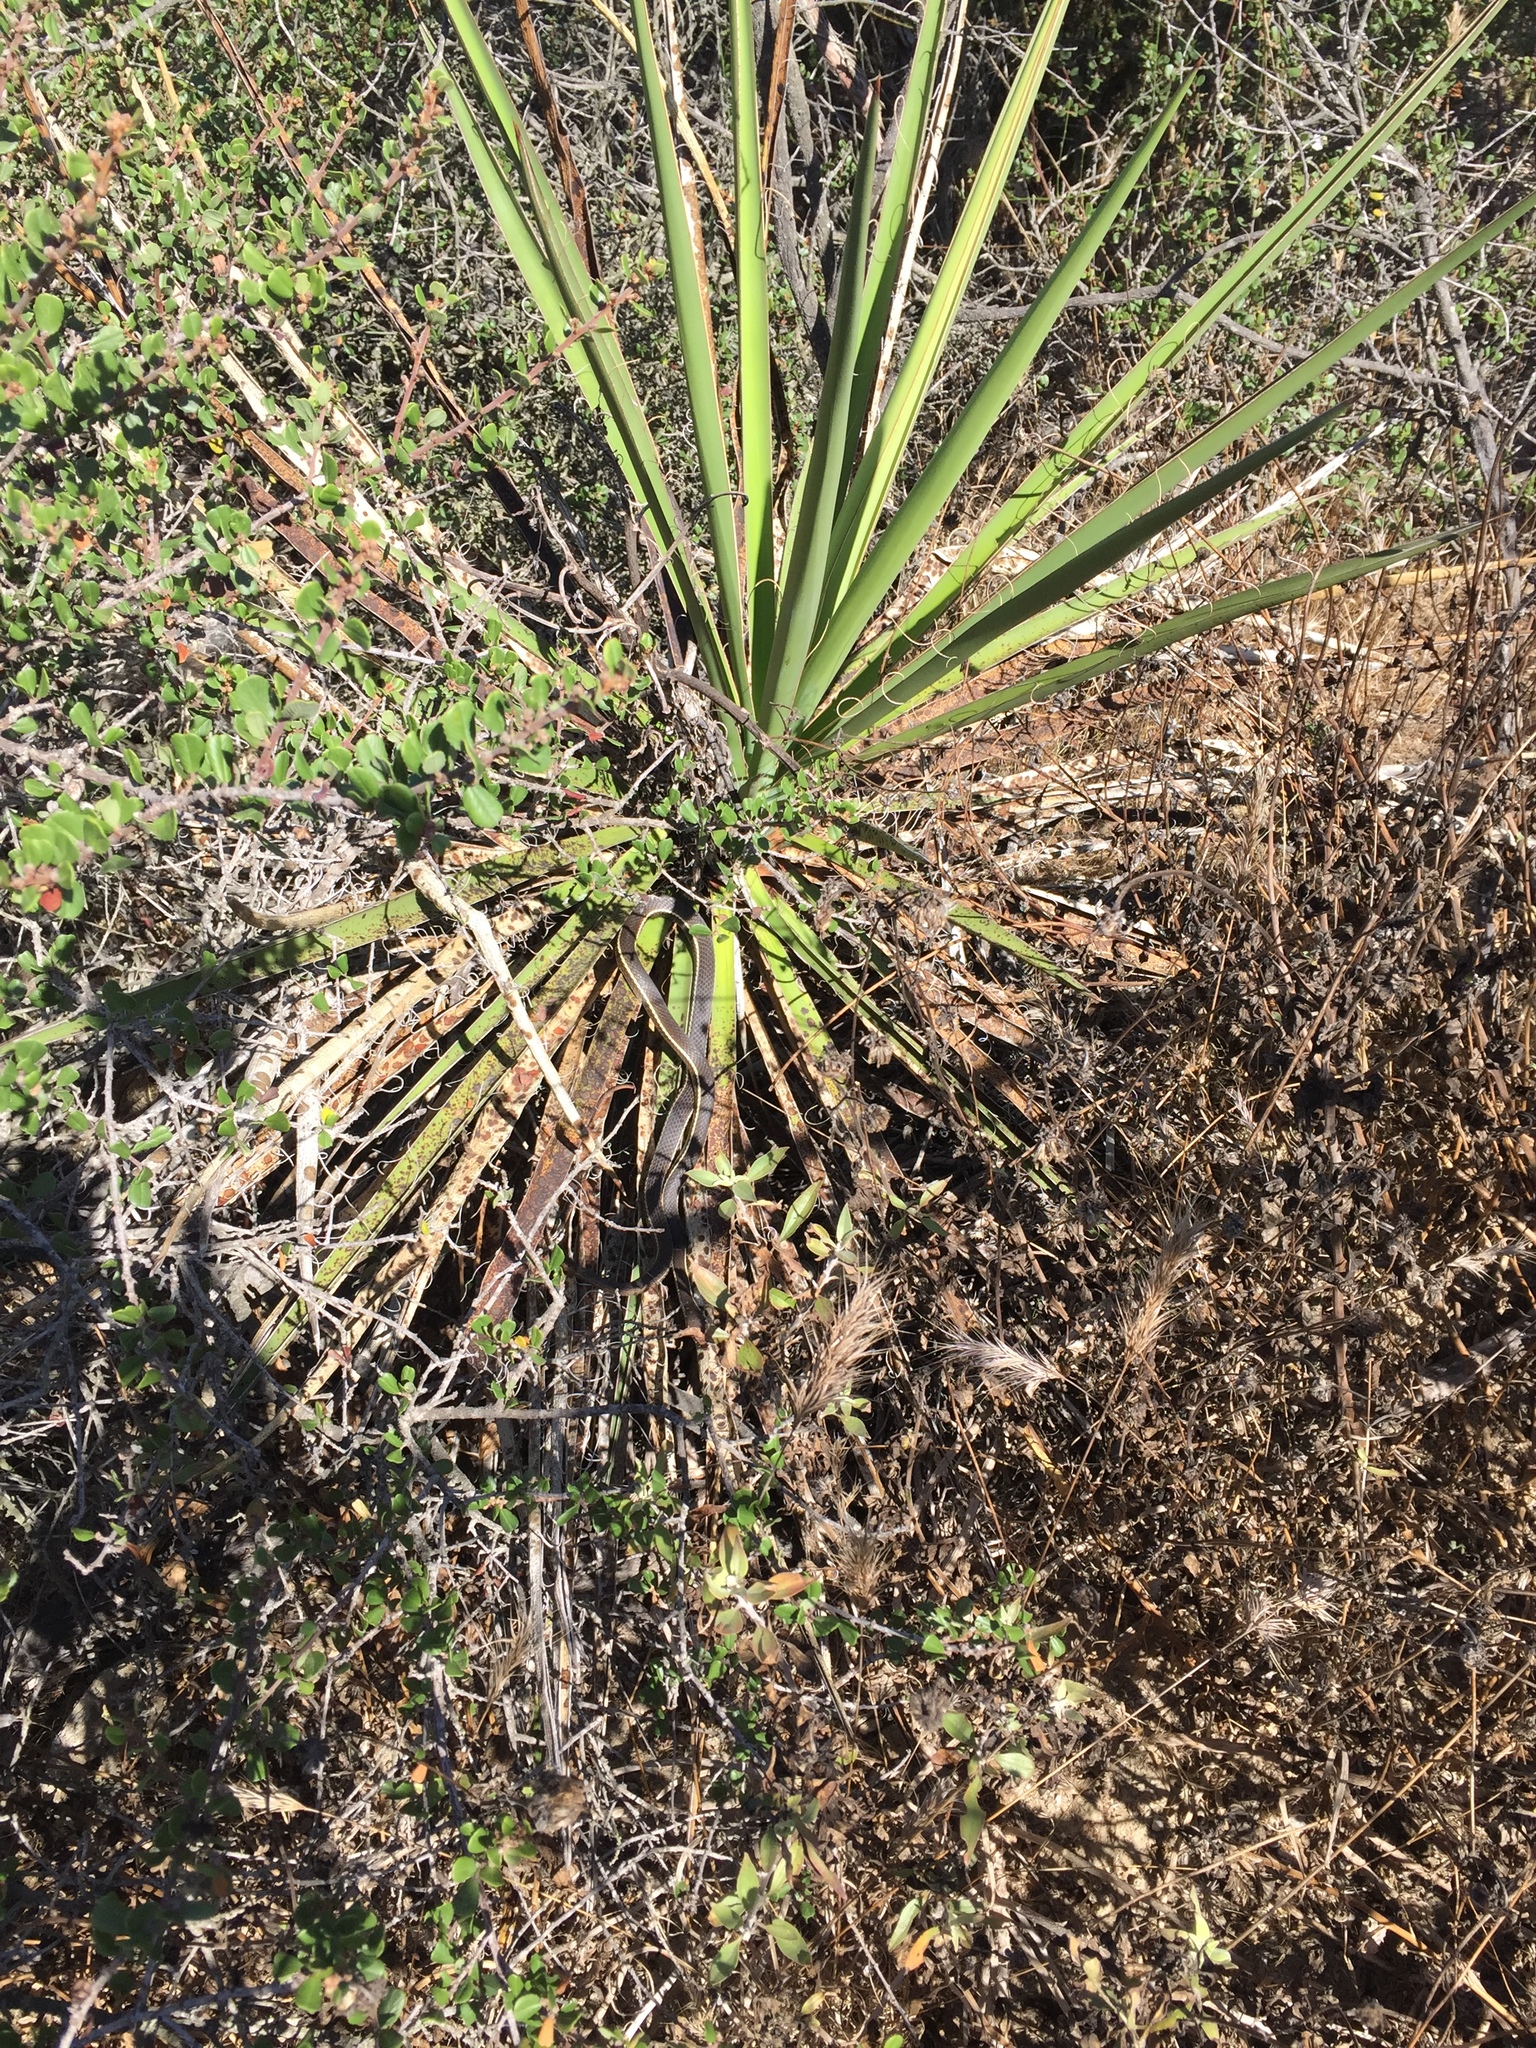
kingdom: Animalia
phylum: Chordata
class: Squamata
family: Colubridae
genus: Masticophis
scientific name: Masticophis lateralis
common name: Striped racer
